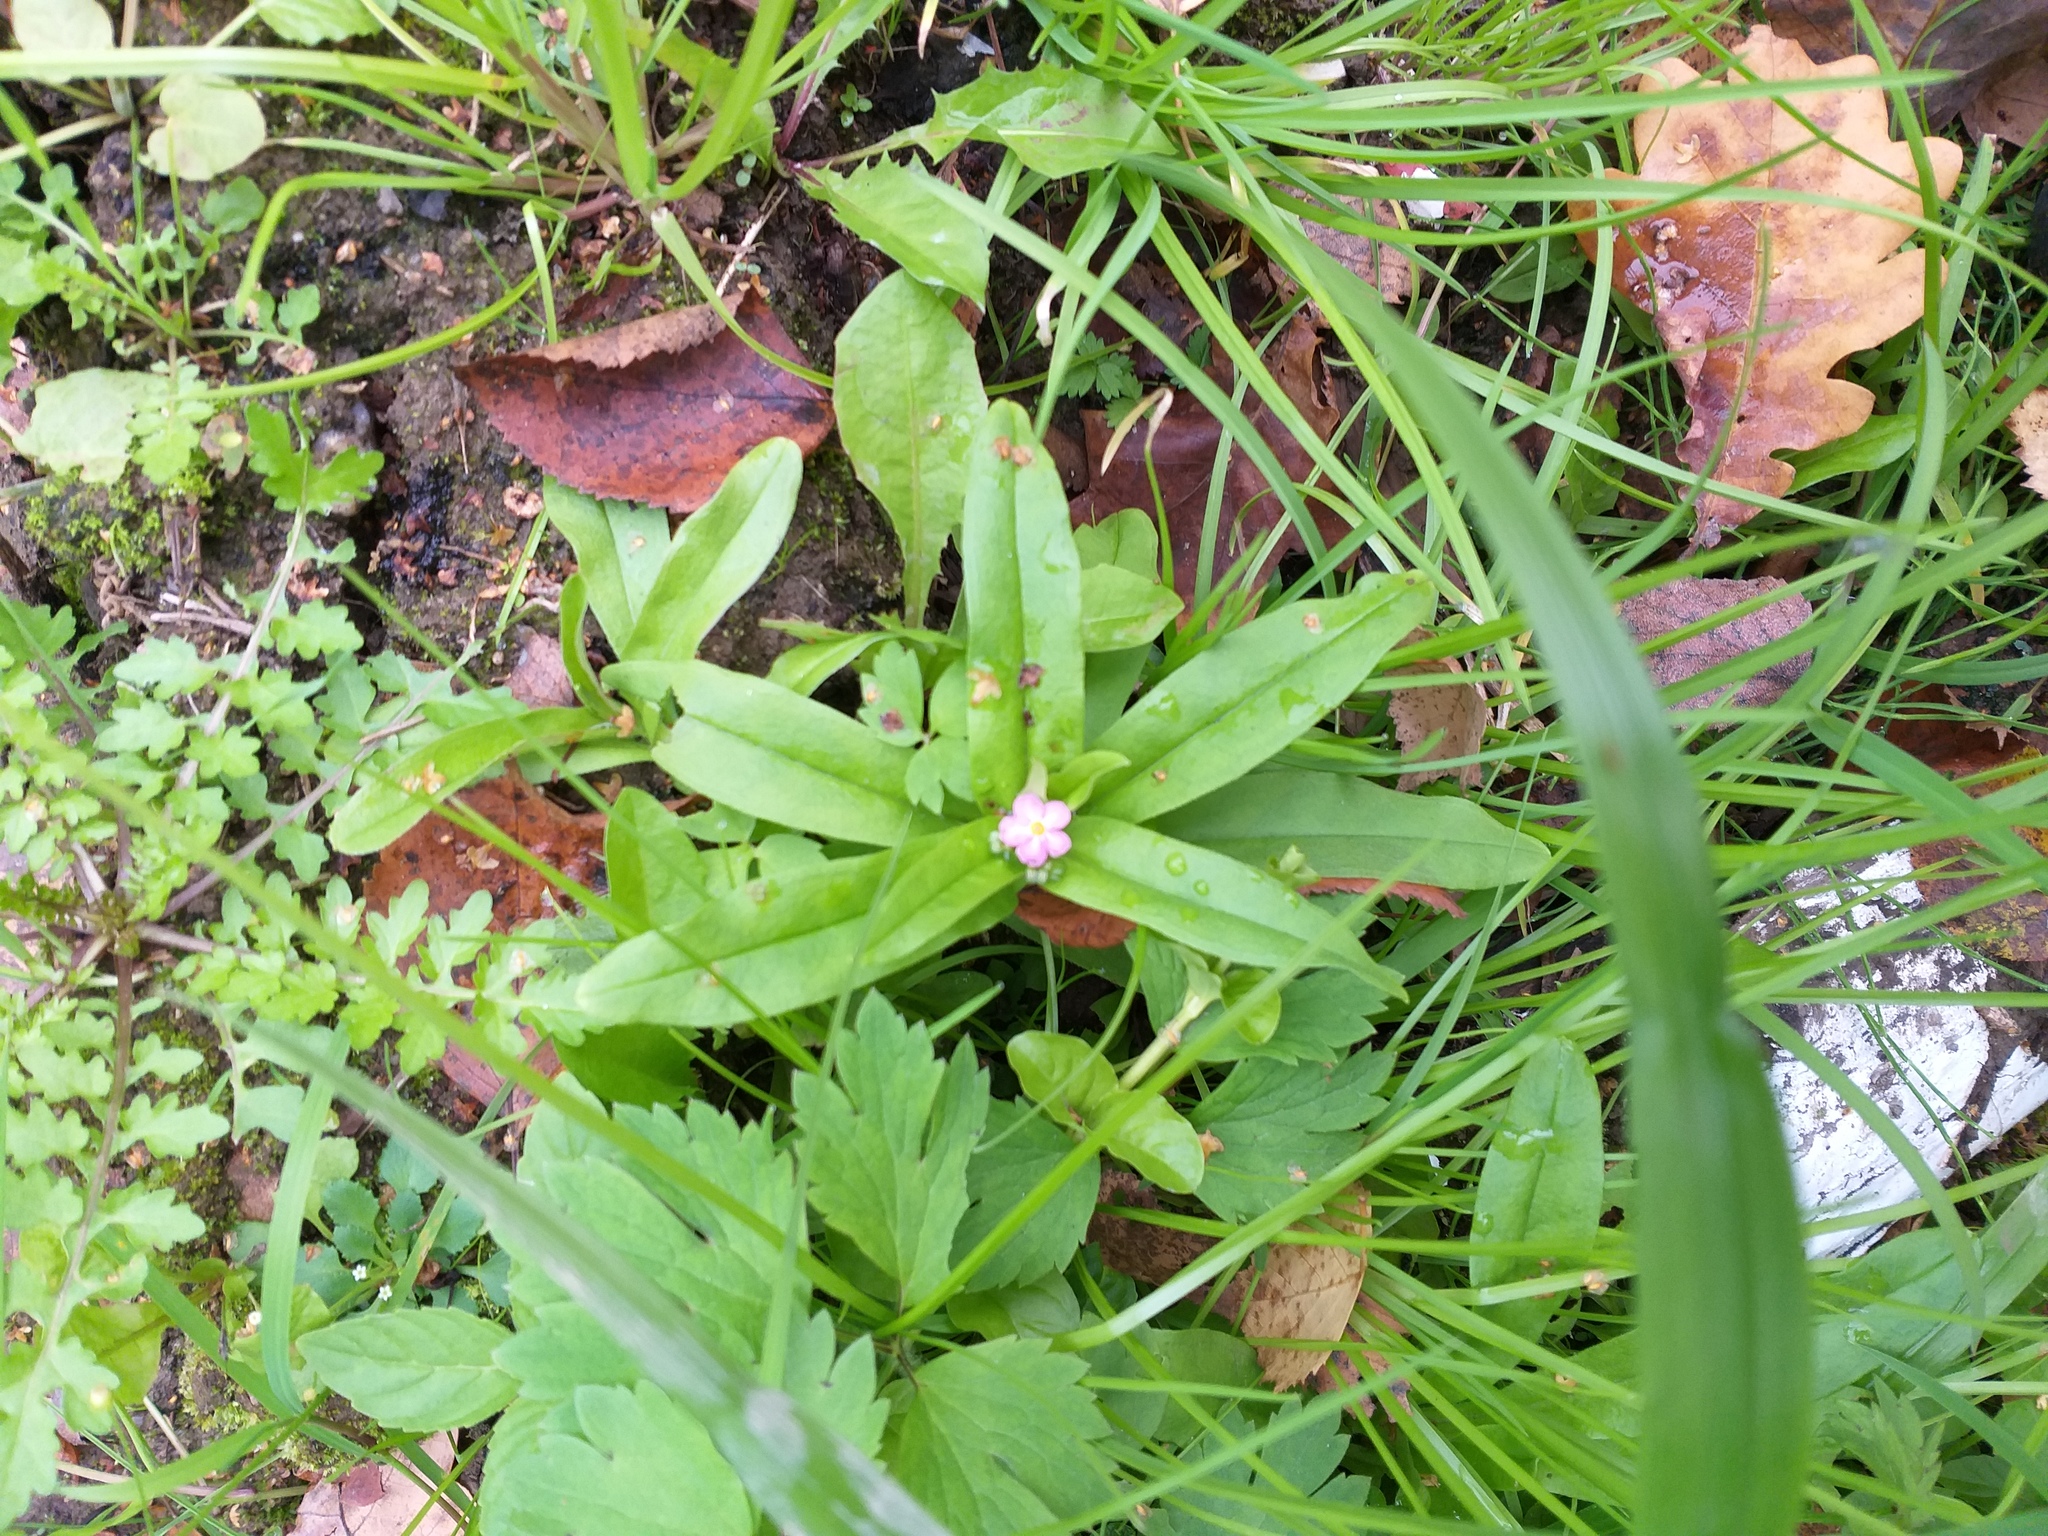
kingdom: Plantae
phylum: Tracheophyta
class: Magnoliopsida
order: Boraginales
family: Boraginaceae
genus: Myosotis
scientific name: Myosotis scorpioides
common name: Water forget-me-not
